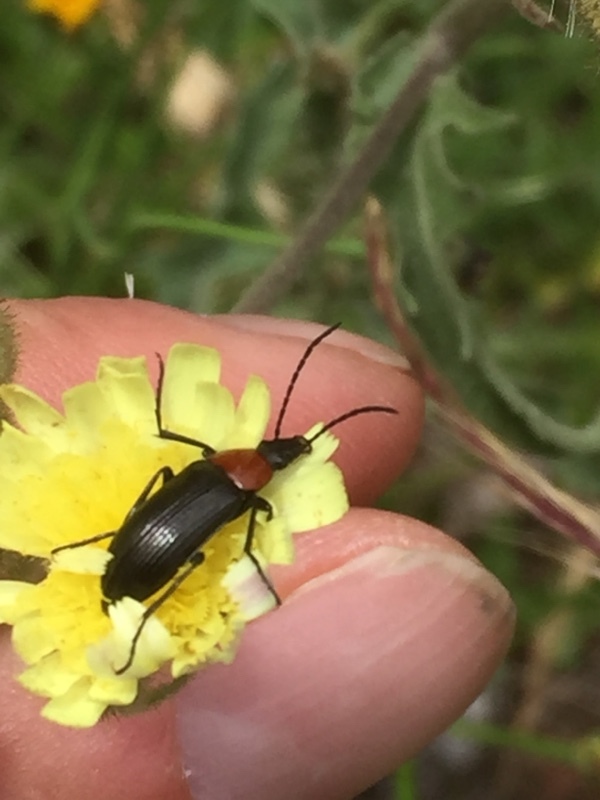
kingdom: Animalia
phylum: Arthropoda
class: Insecta
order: Coleoptera
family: Tenebrionidae
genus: Heliotaurus
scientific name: Heliotaurus ruficollis
